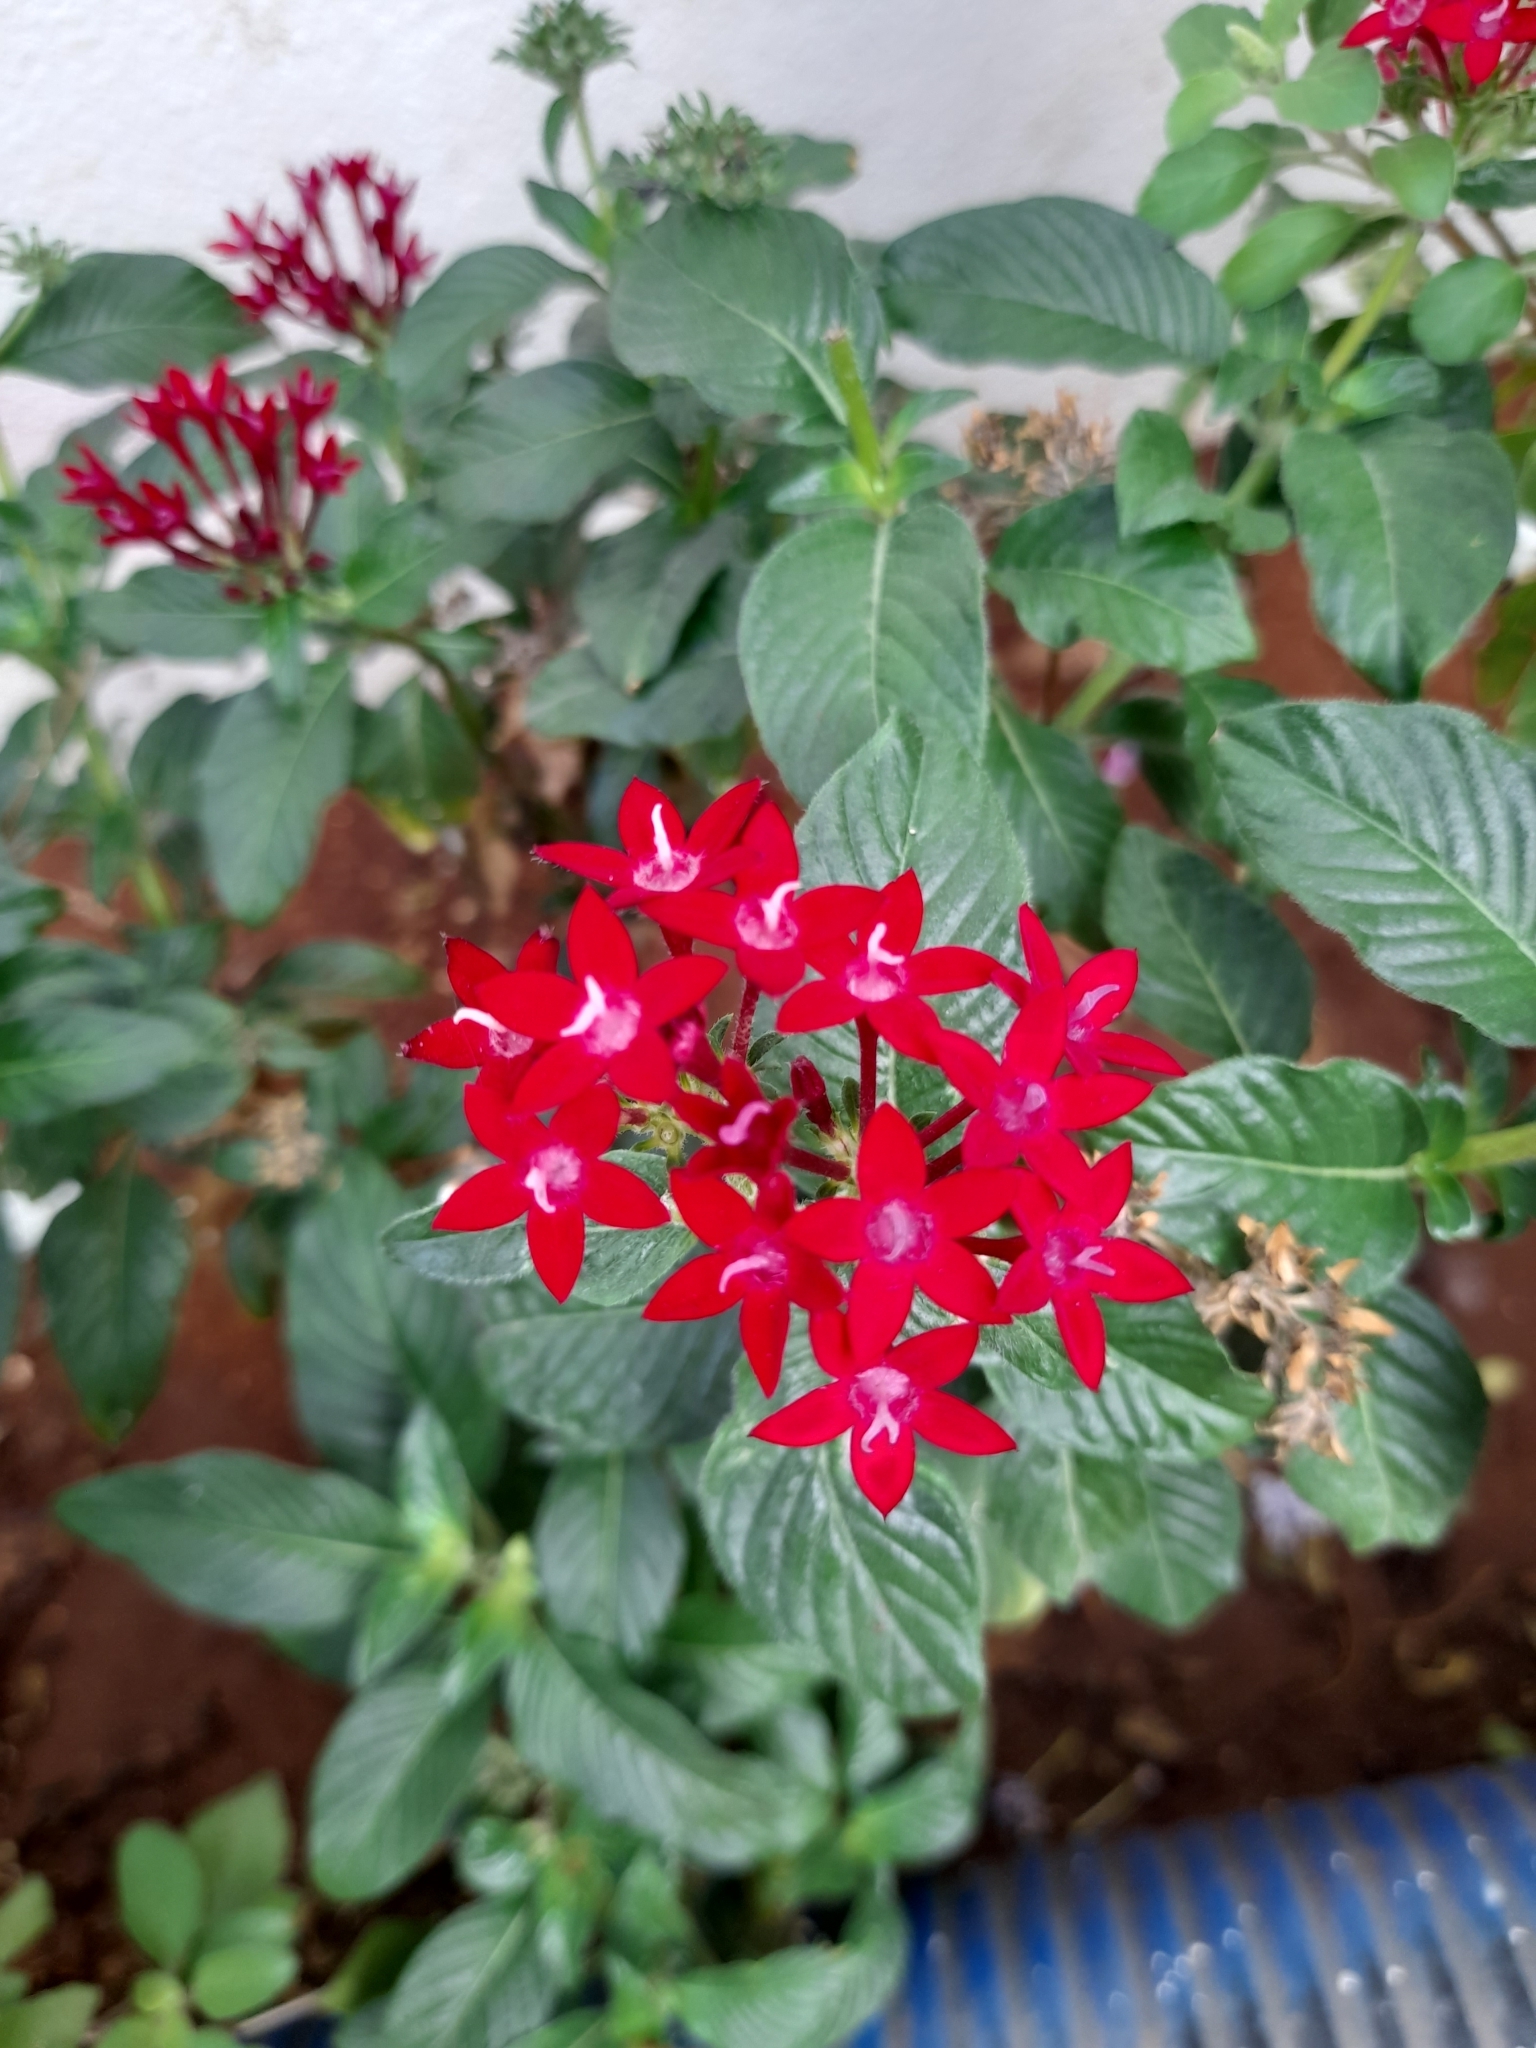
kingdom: Plantae
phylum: Tracheophyta
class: Magnoliopsida
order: Gentianales
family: Rubiaceae
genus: Pentas
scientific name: Pentas lanceolata
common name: Egyptian starcluster
